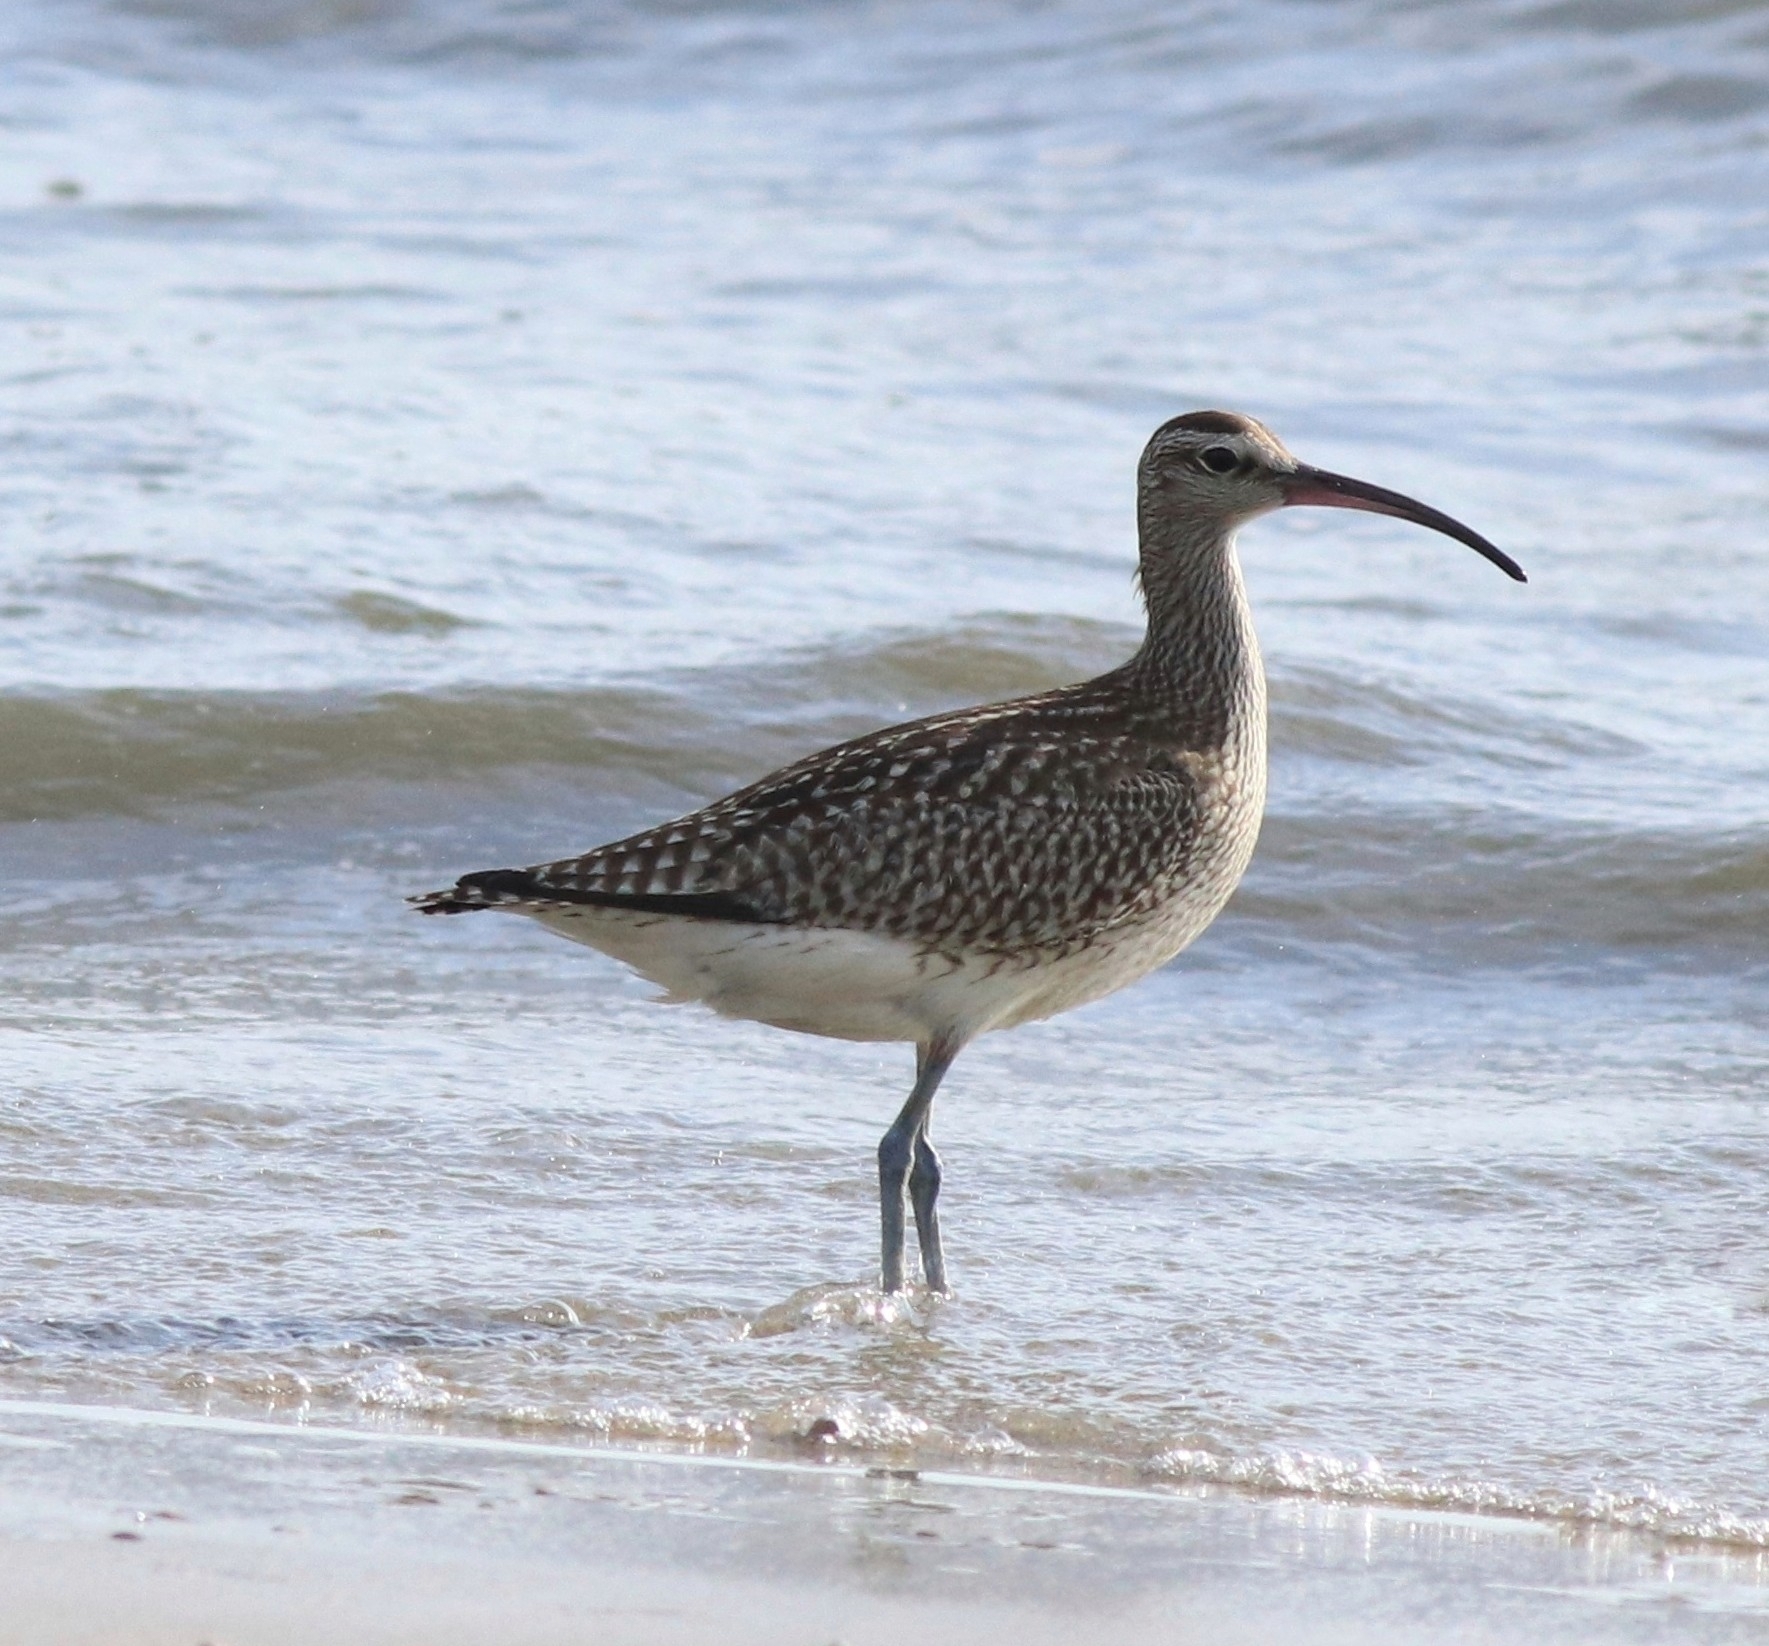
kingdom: Animalia
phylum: Chordata
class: Aves
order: Charadriiformes
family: Scolopacidae
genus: Numenius
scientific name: Numenius phaeopus
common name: Whimbrel
